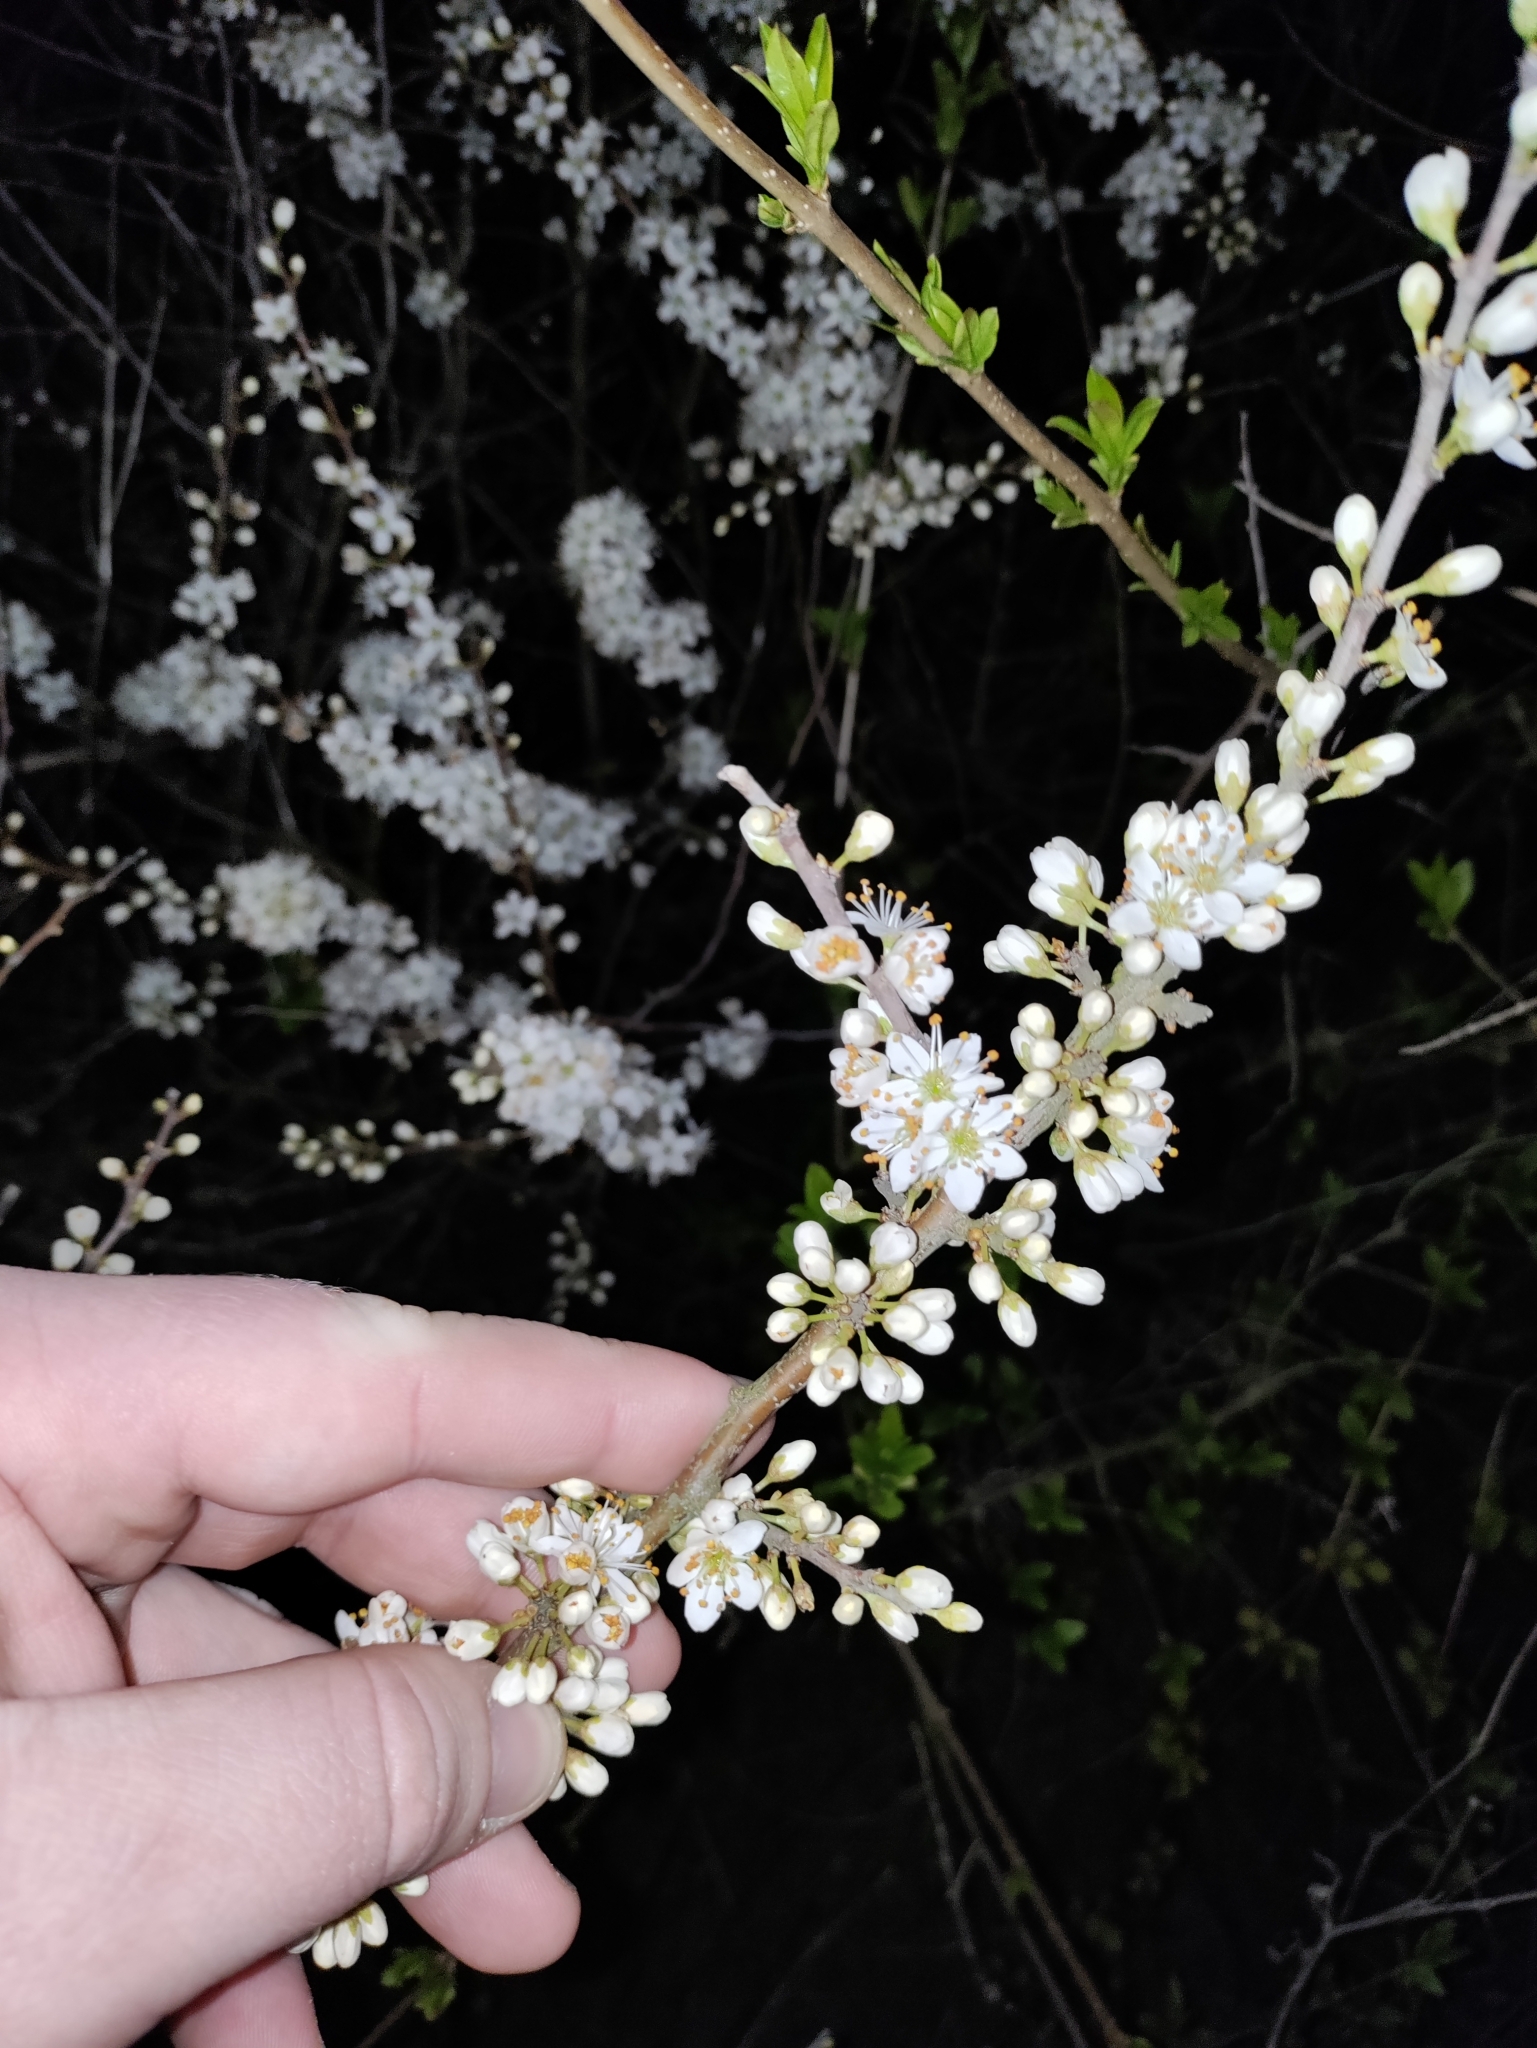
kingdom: Plantae
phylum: Tracheophyta
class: Magnoliopsida
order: Rosales
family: Rosaceae
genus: Prunus
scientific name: Prunus spinosa
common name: Blackthorn
